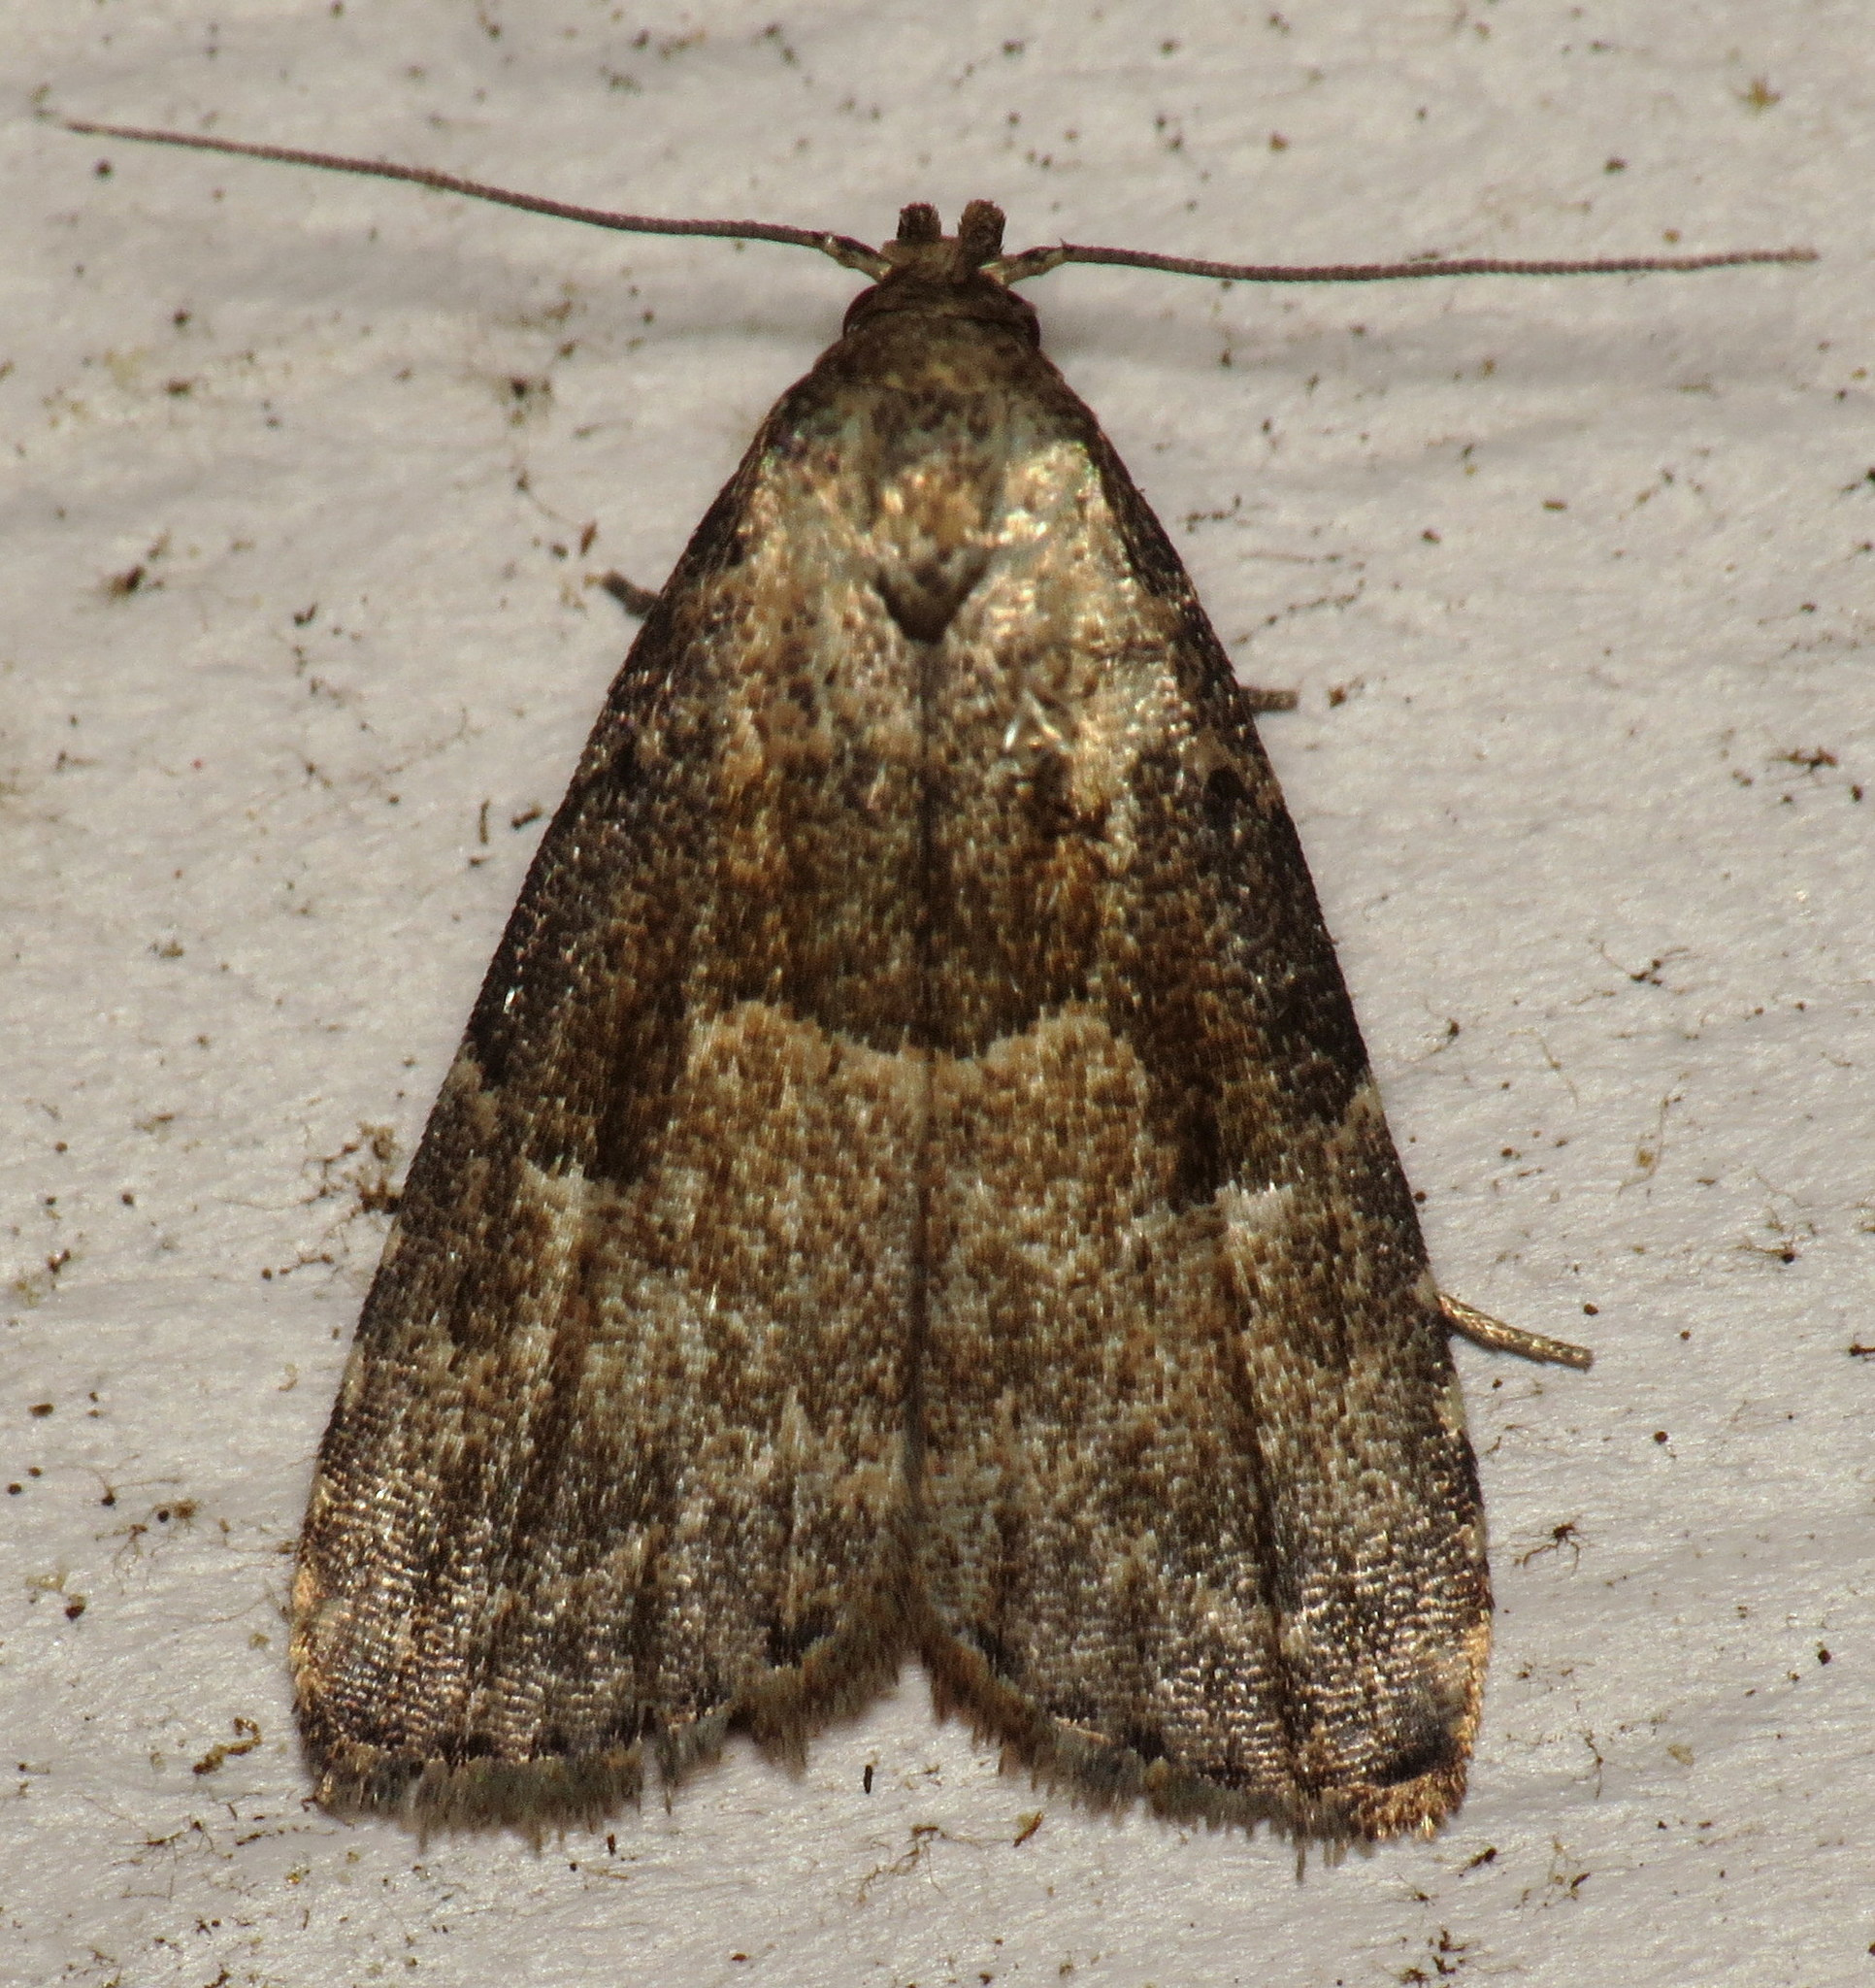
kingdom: Animalia
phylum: Arthropoda
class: Insecta
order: Lepidoptera
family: Erebidae
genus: Hypenodes
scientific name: Hypenodes franclemonti
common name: Franclemont's hypenodes moth
